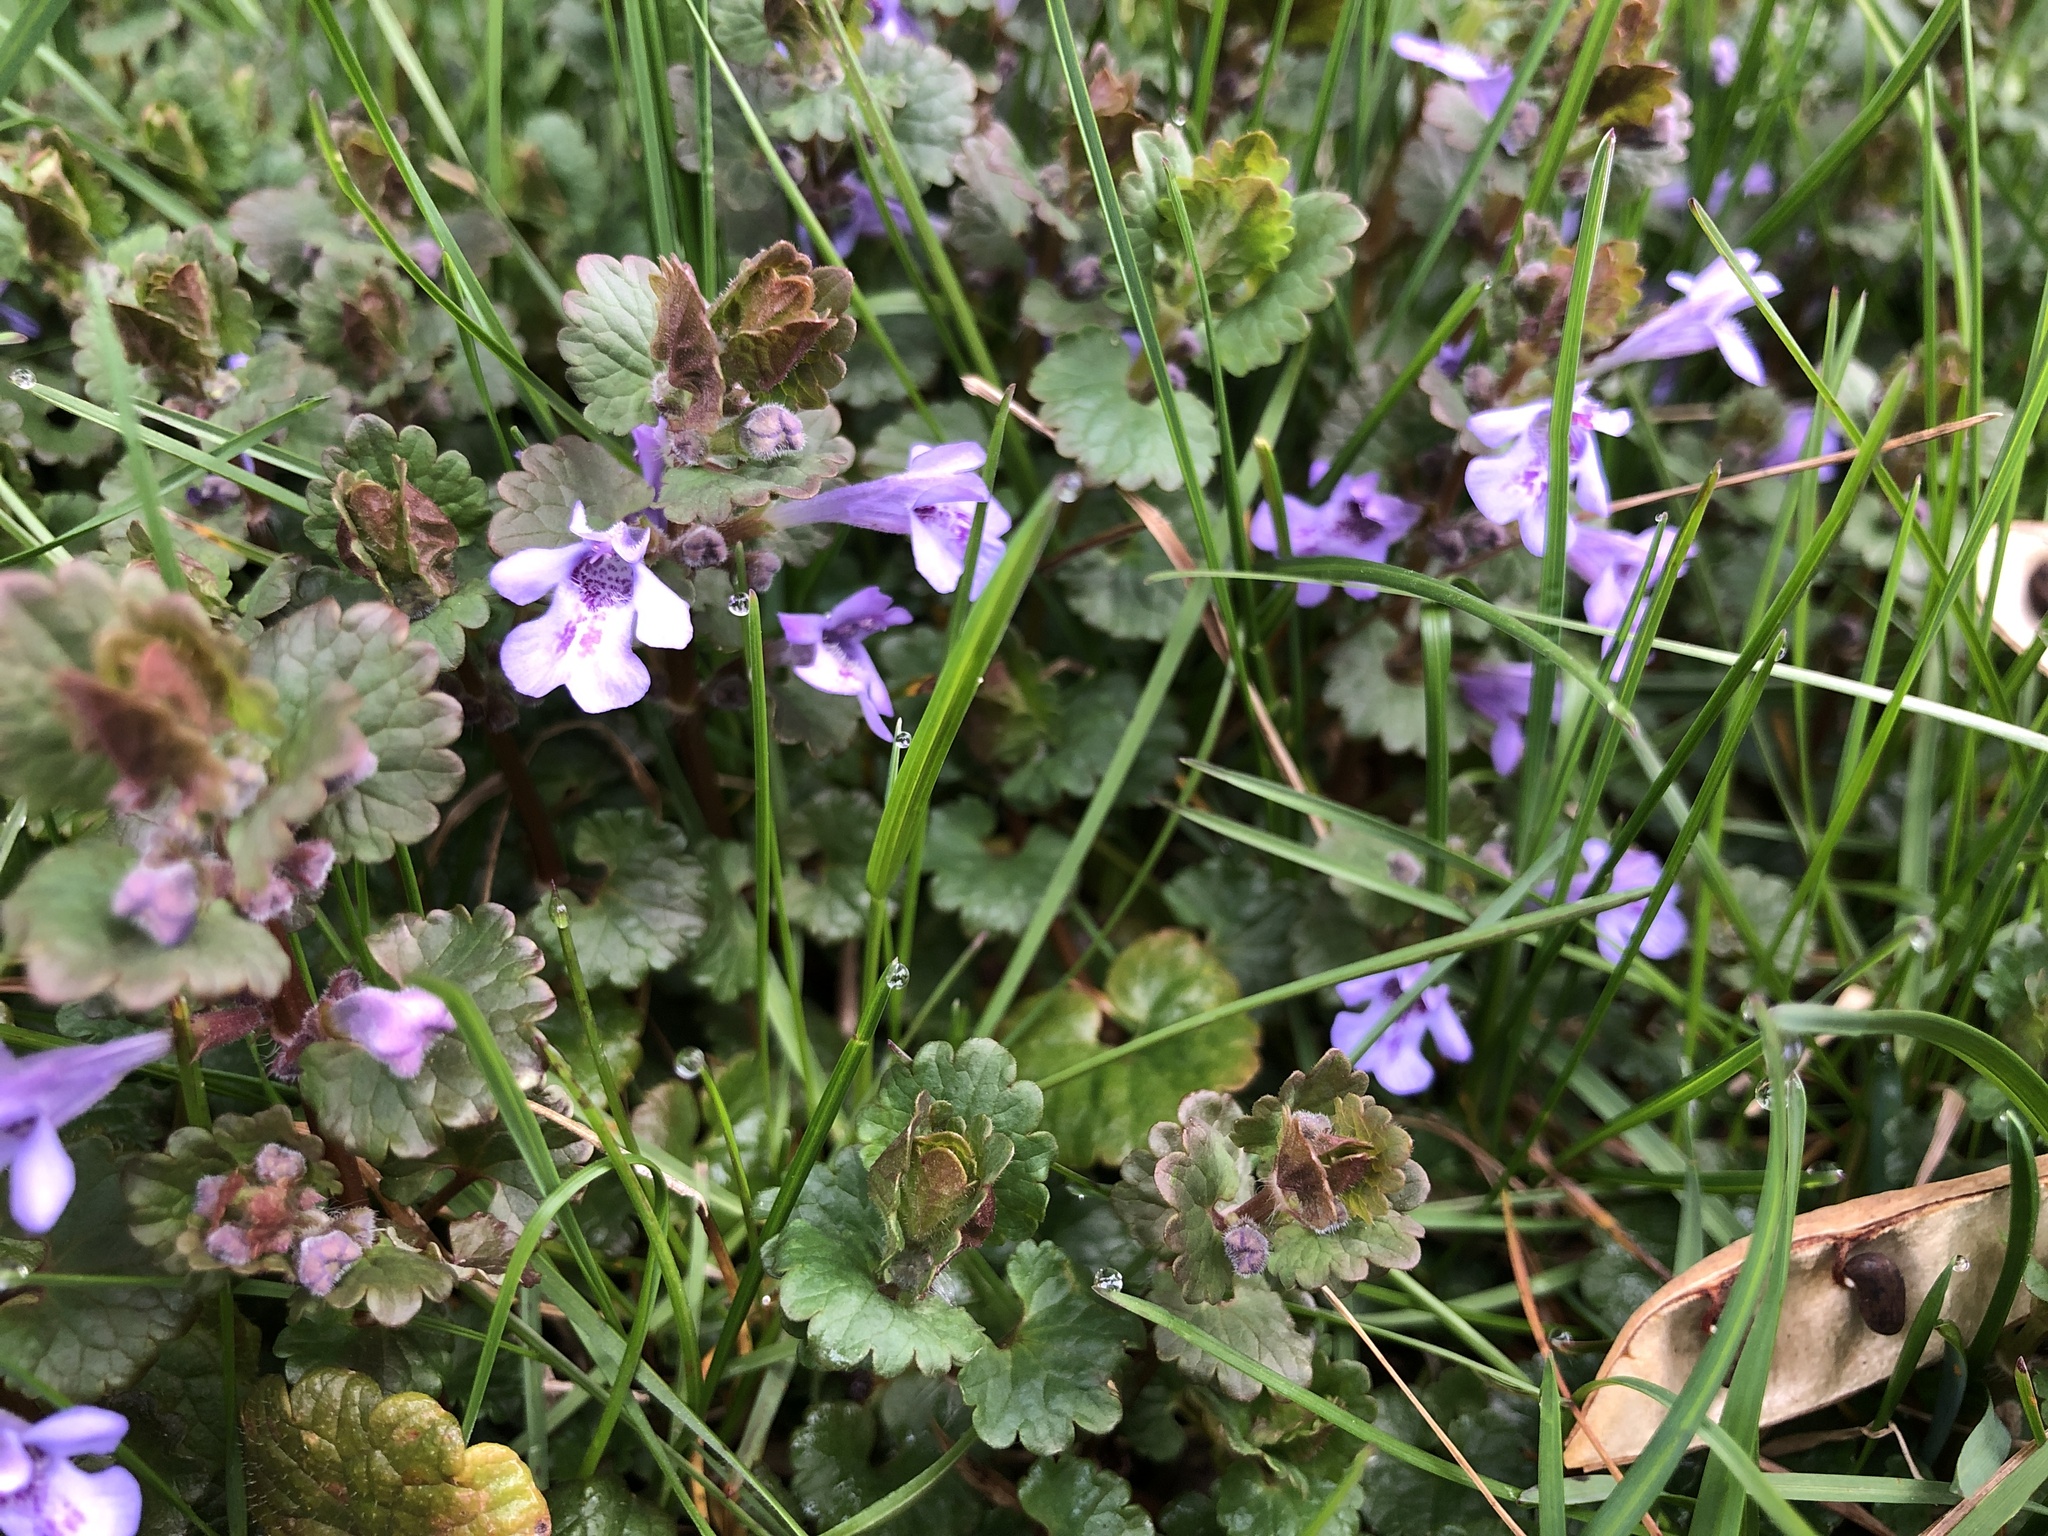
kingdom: Plantae
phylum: Tracheophyta
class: Magnoliopsida
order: Lamiales
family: Lamiaceae
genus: Glechoma
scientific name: Glechoma hederacea
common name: Ground ivy
